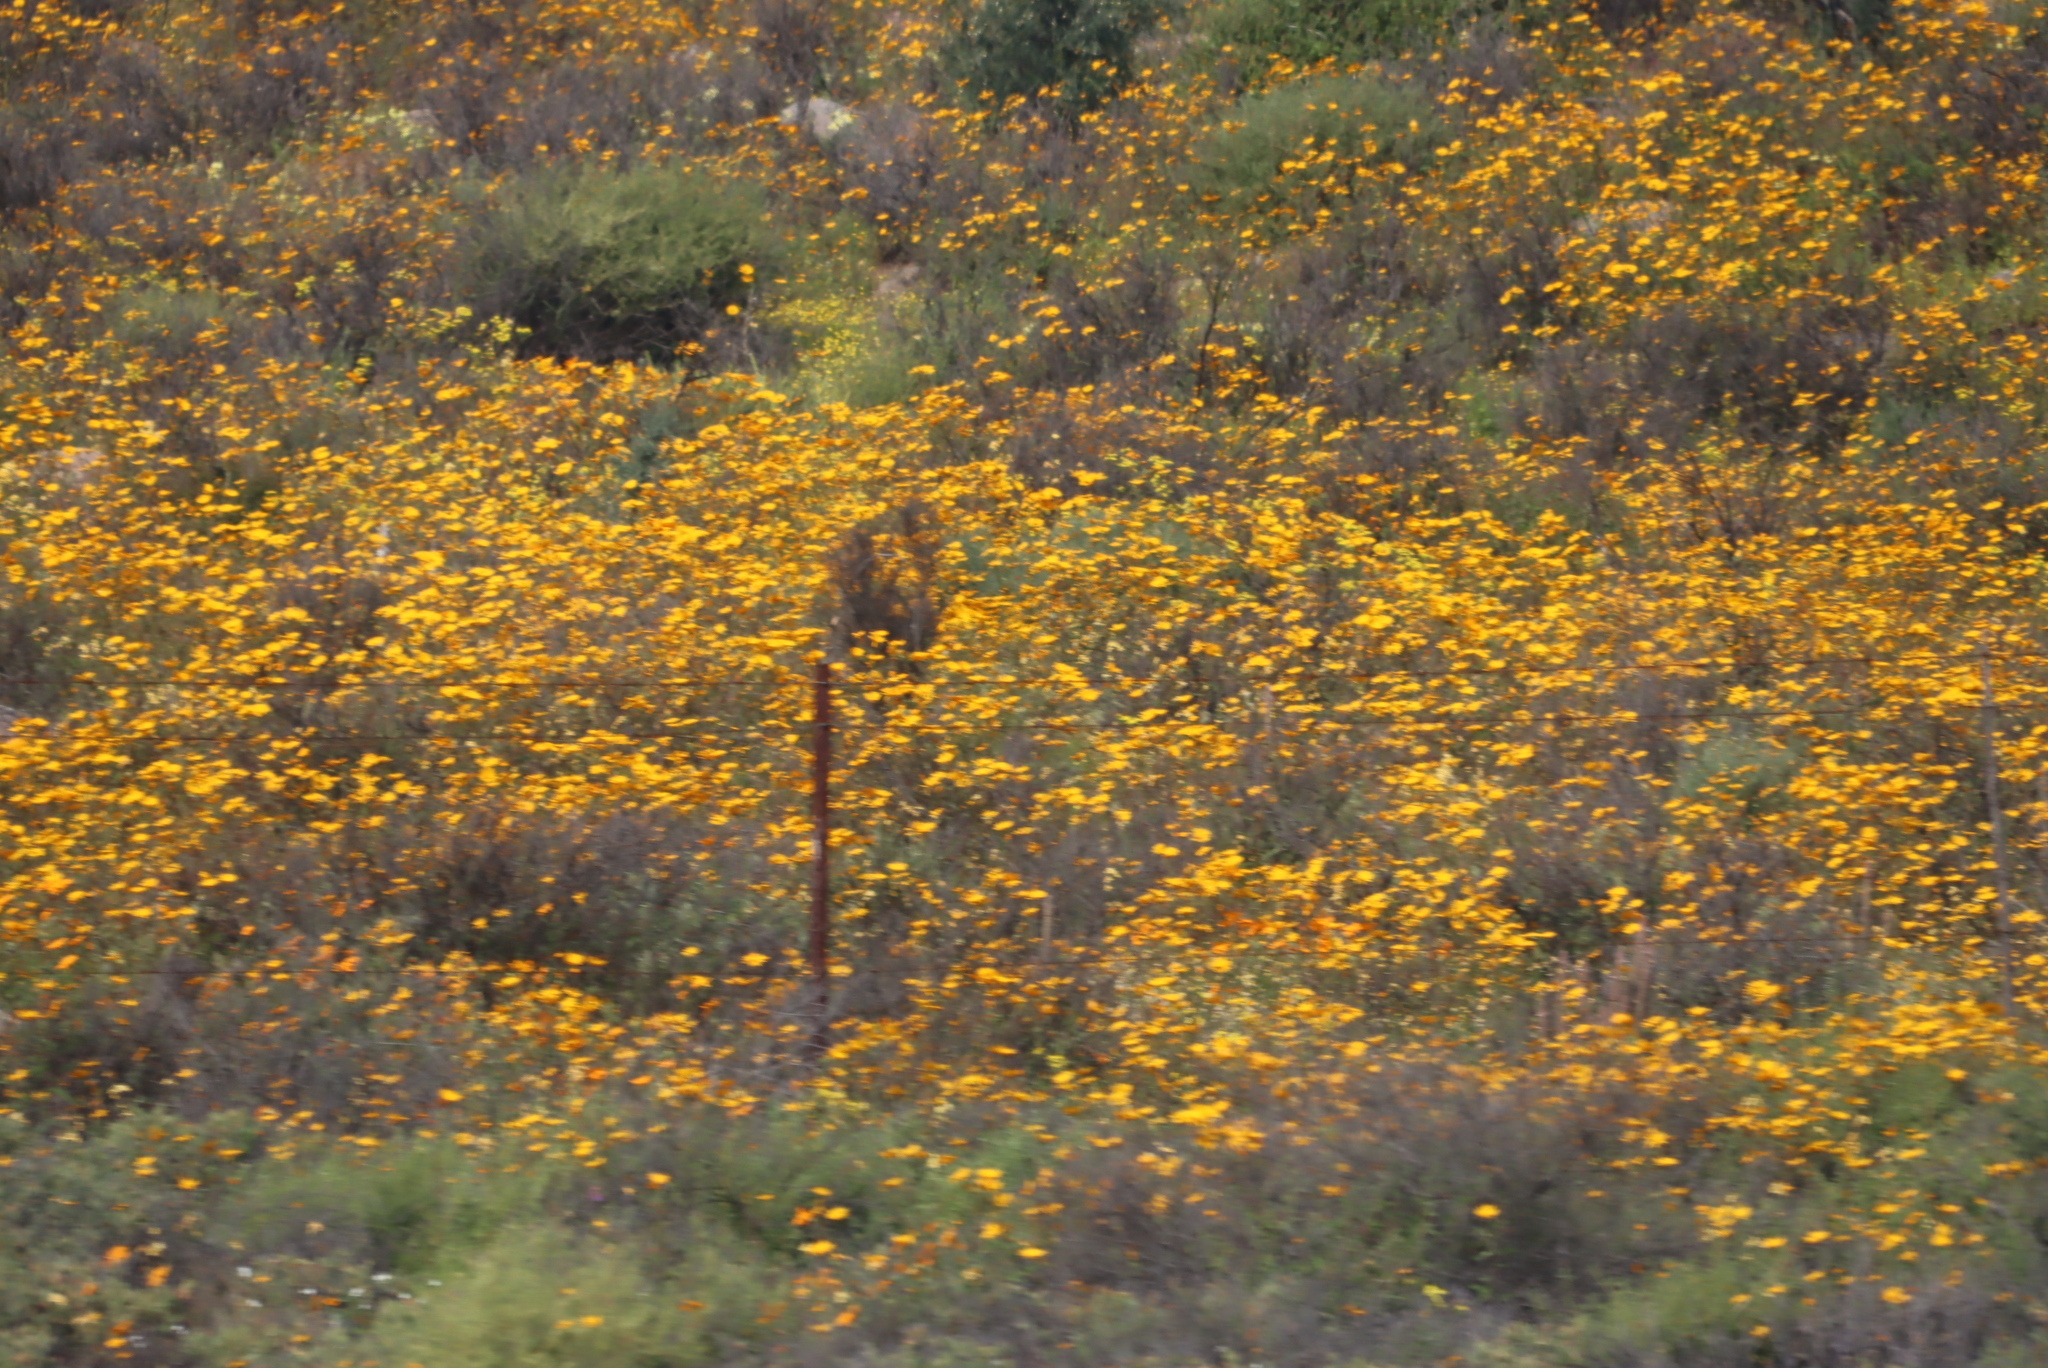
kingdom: Plantae
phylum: Tracheophyta
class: Magnoliopsida
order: Asterales
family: Asteraceae
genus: Dimorphotheca
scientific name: Dimorphotheca sinuata
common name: Glandular cape marigold
